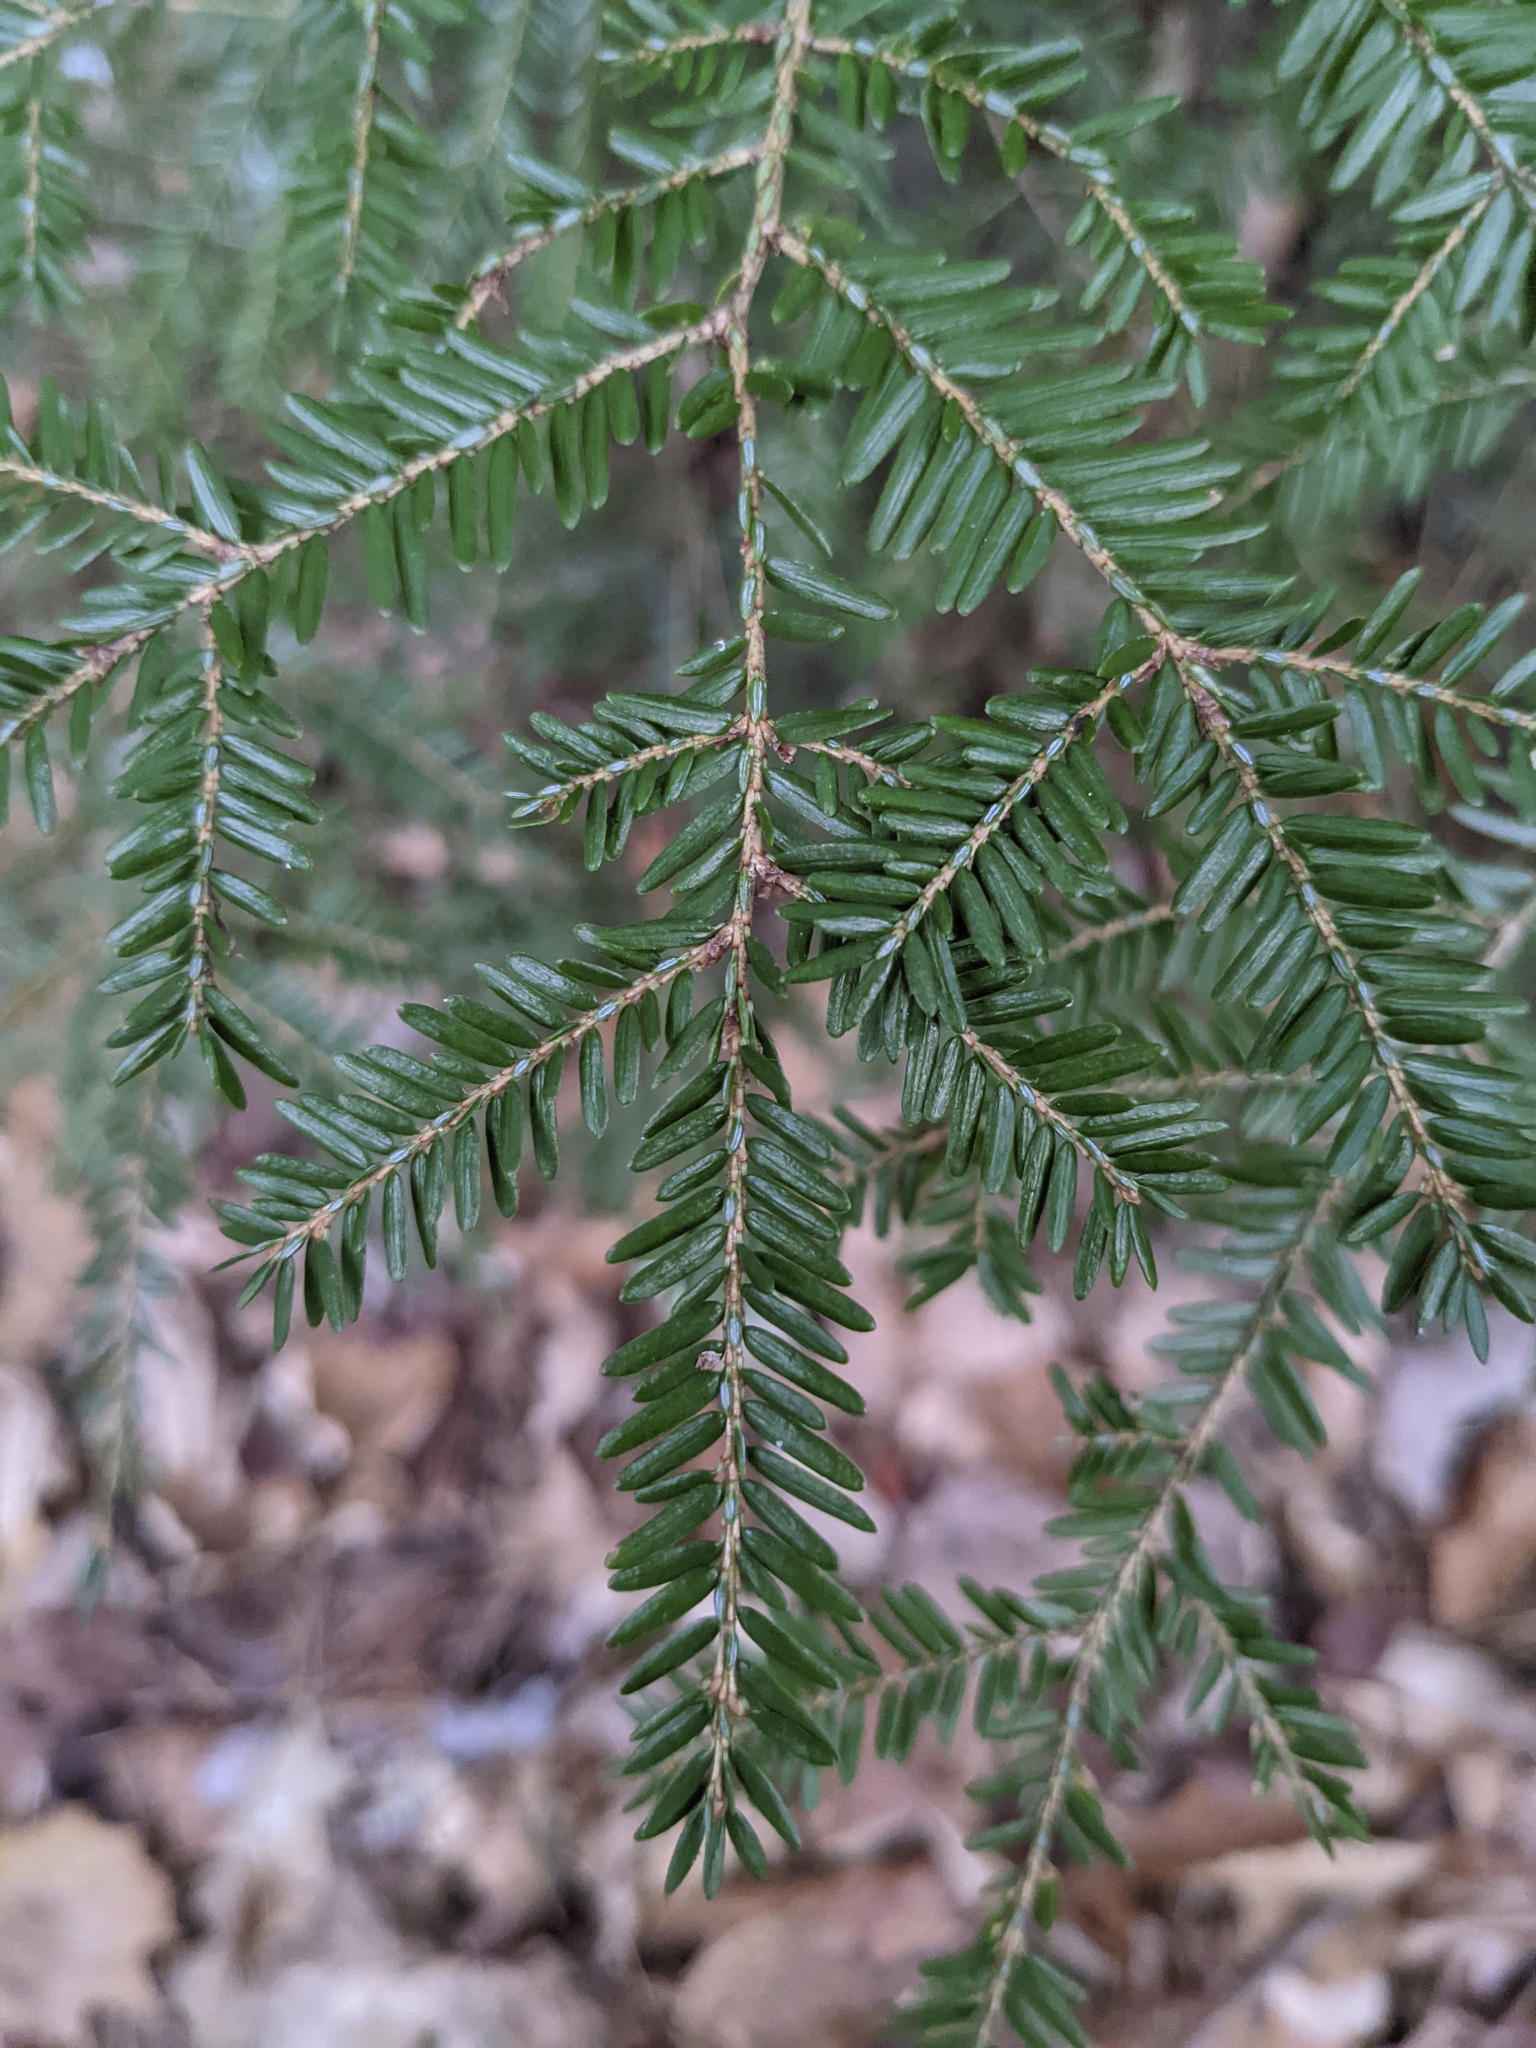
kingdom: Plantae
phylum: Tracheophyta
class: Pinopsida
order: Pinales
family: Pinaceae
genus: Tsuga
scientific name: Tsuga canadensis
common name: Eastern hemlock
